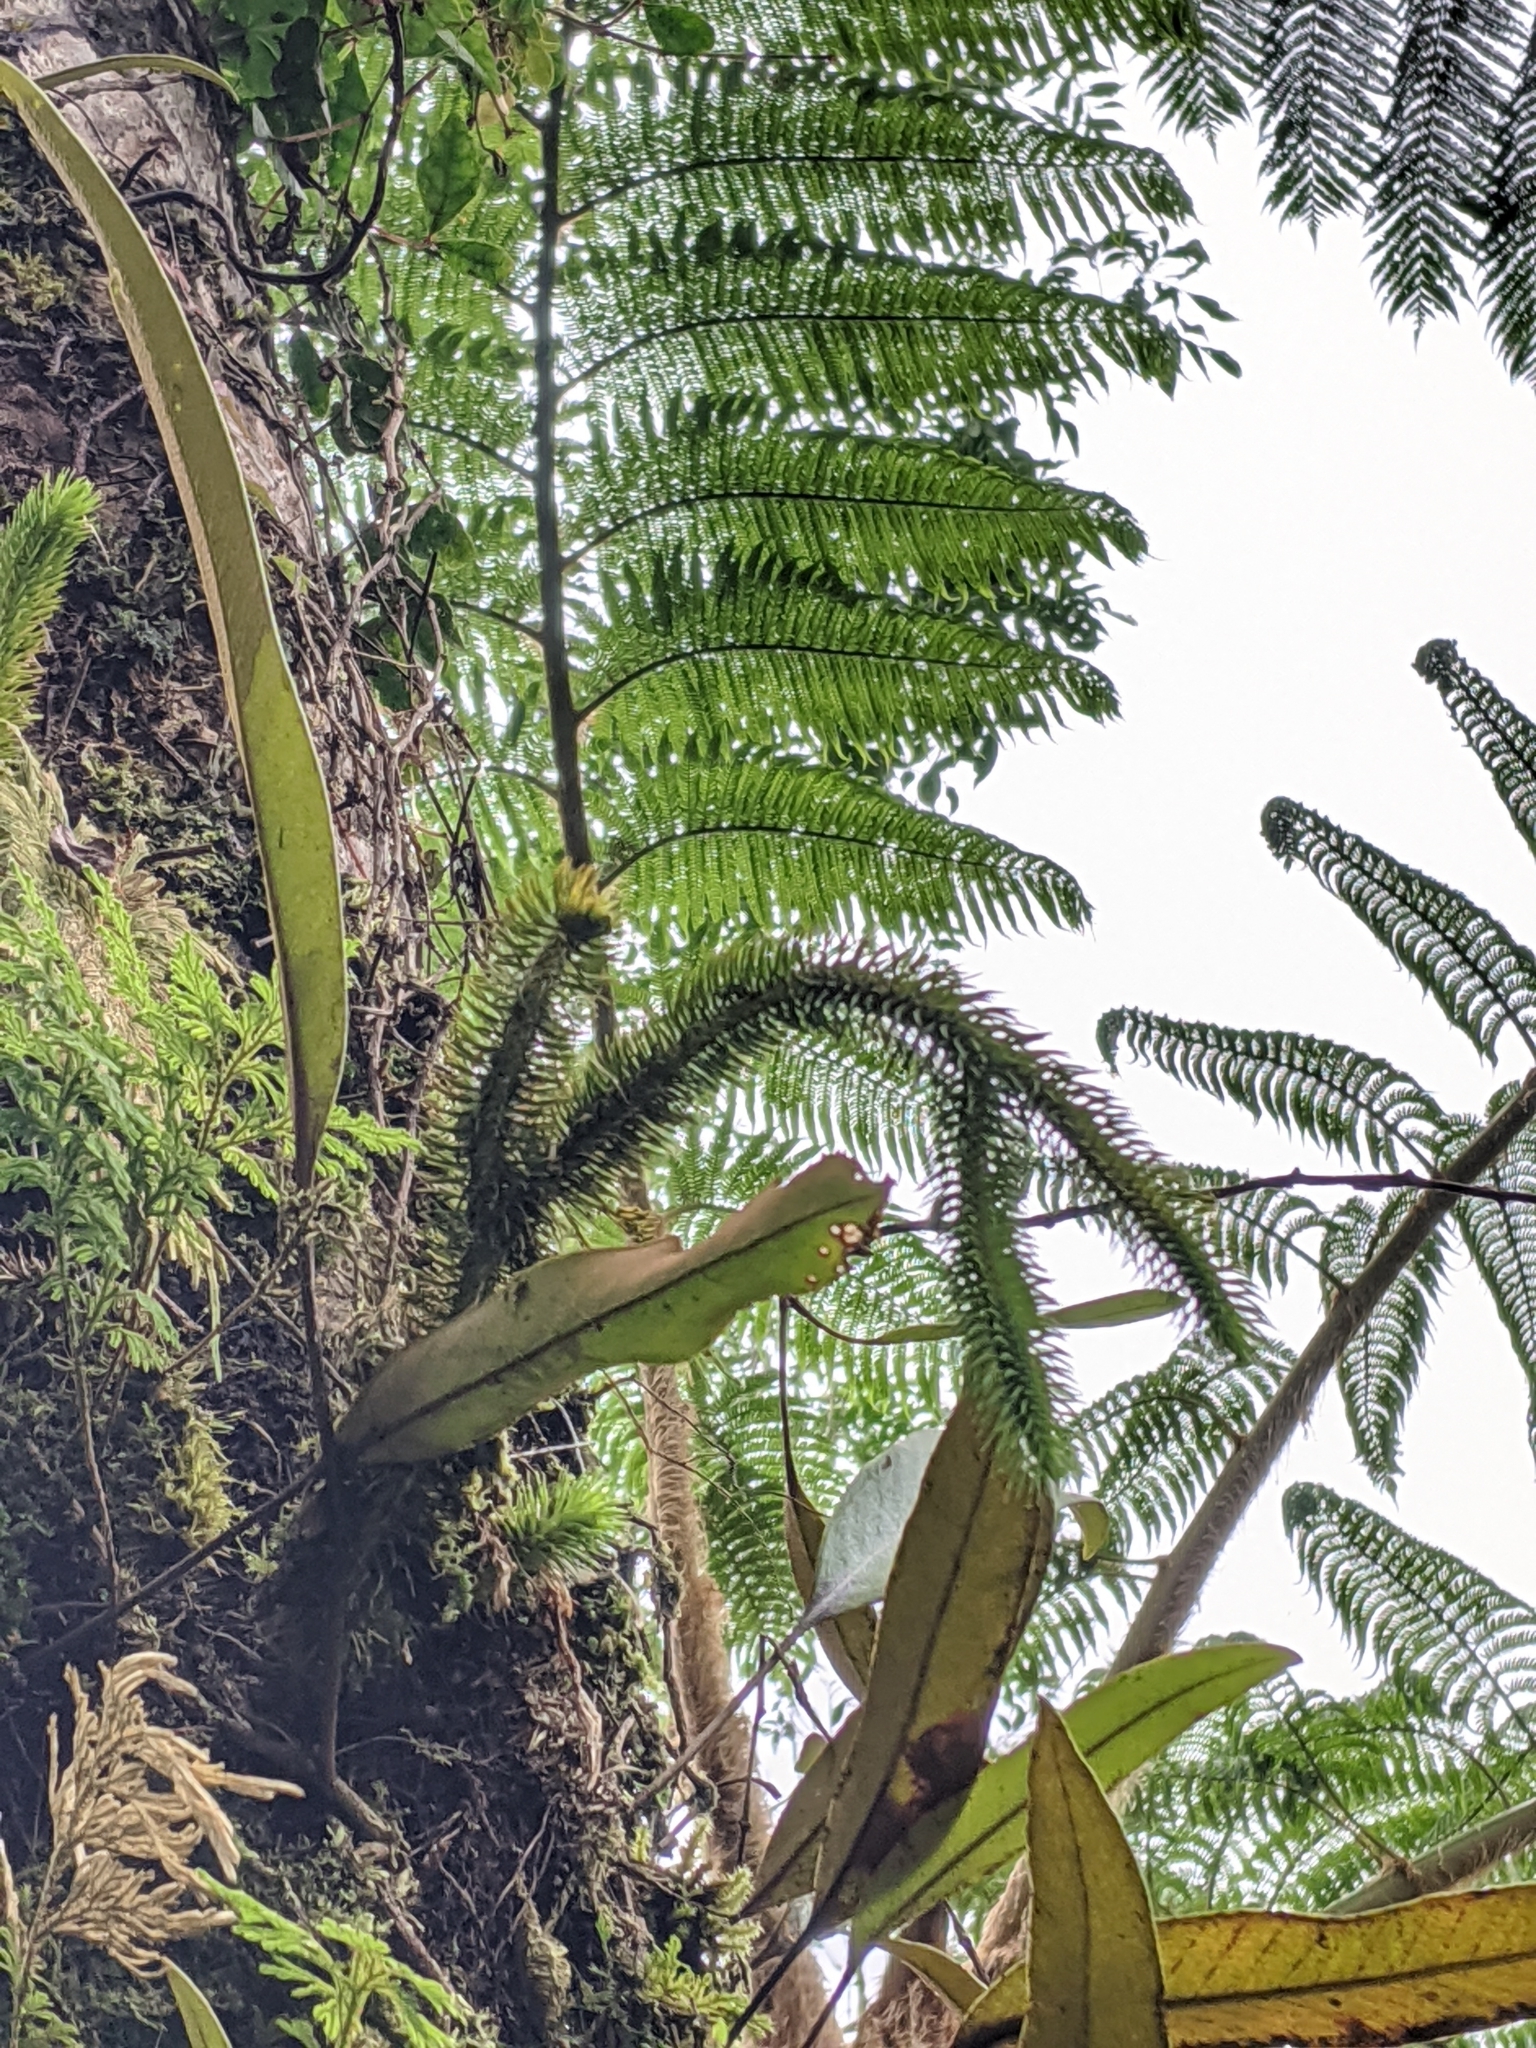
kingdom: Plantae
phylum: Tracheophyta
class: Lycopodiopsida
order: Lycopodiales
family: Lycopodiaceae
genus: Phlegmariurus
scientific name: Phlegmariurus squarrosus
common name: Rock tassel-fern
